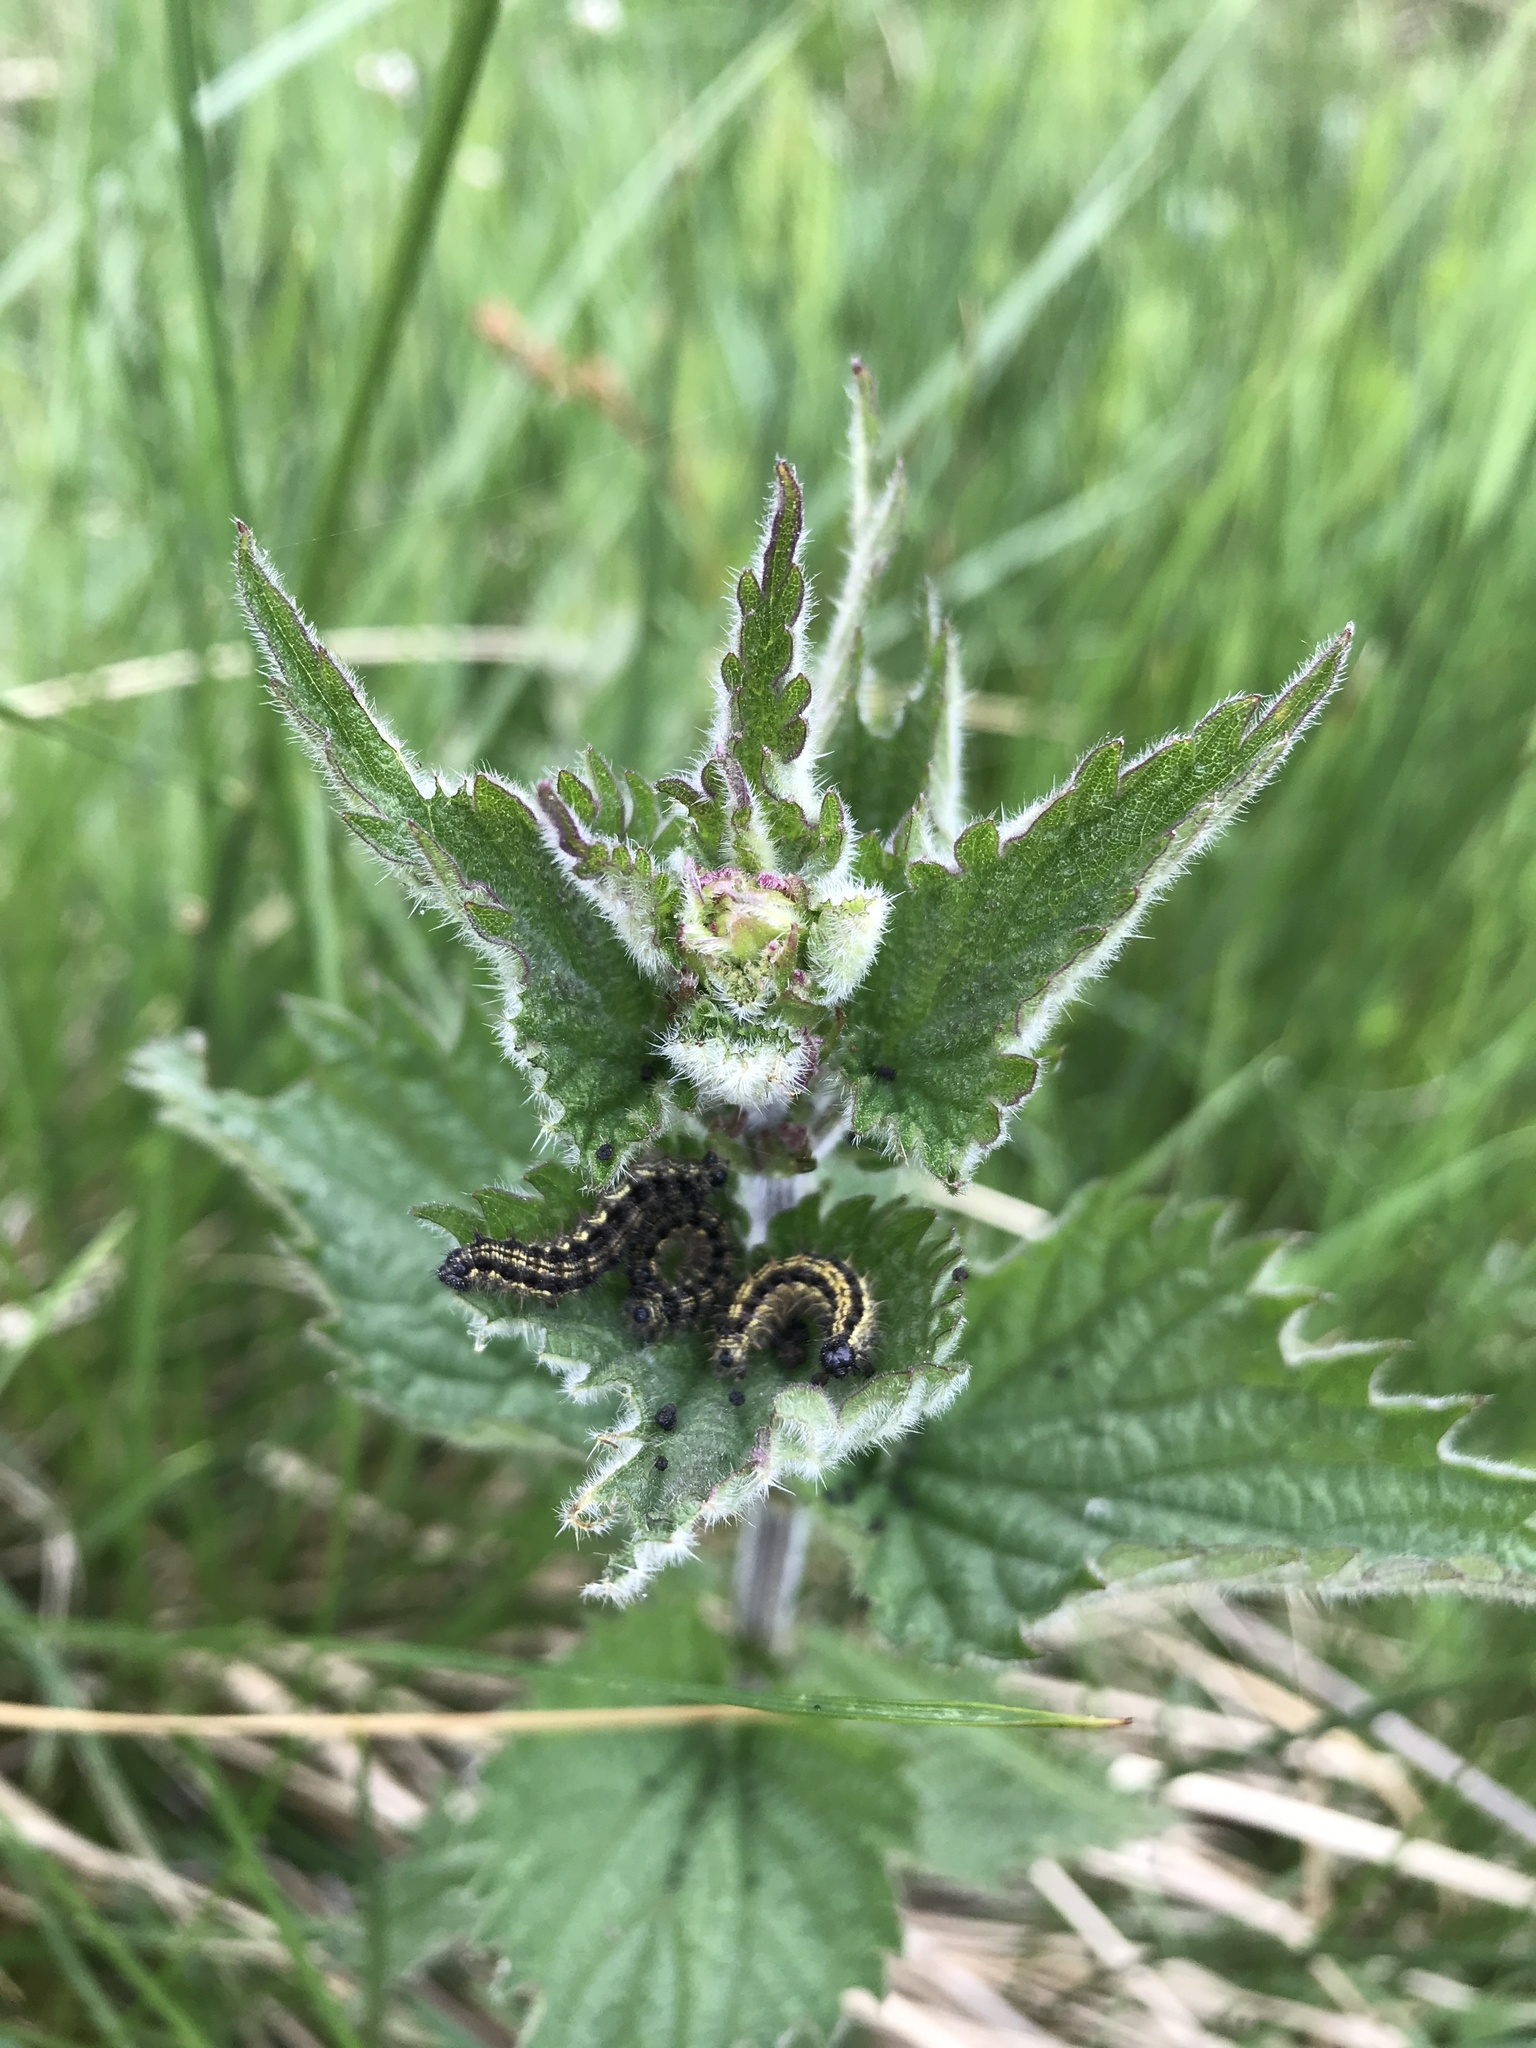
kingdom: Animalia
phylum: Arthropoda
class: Insecta
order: Lepidoptera
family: Nymphalidae
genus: Aglais
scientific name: Aglais urticae
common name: Small tortoiseshell
